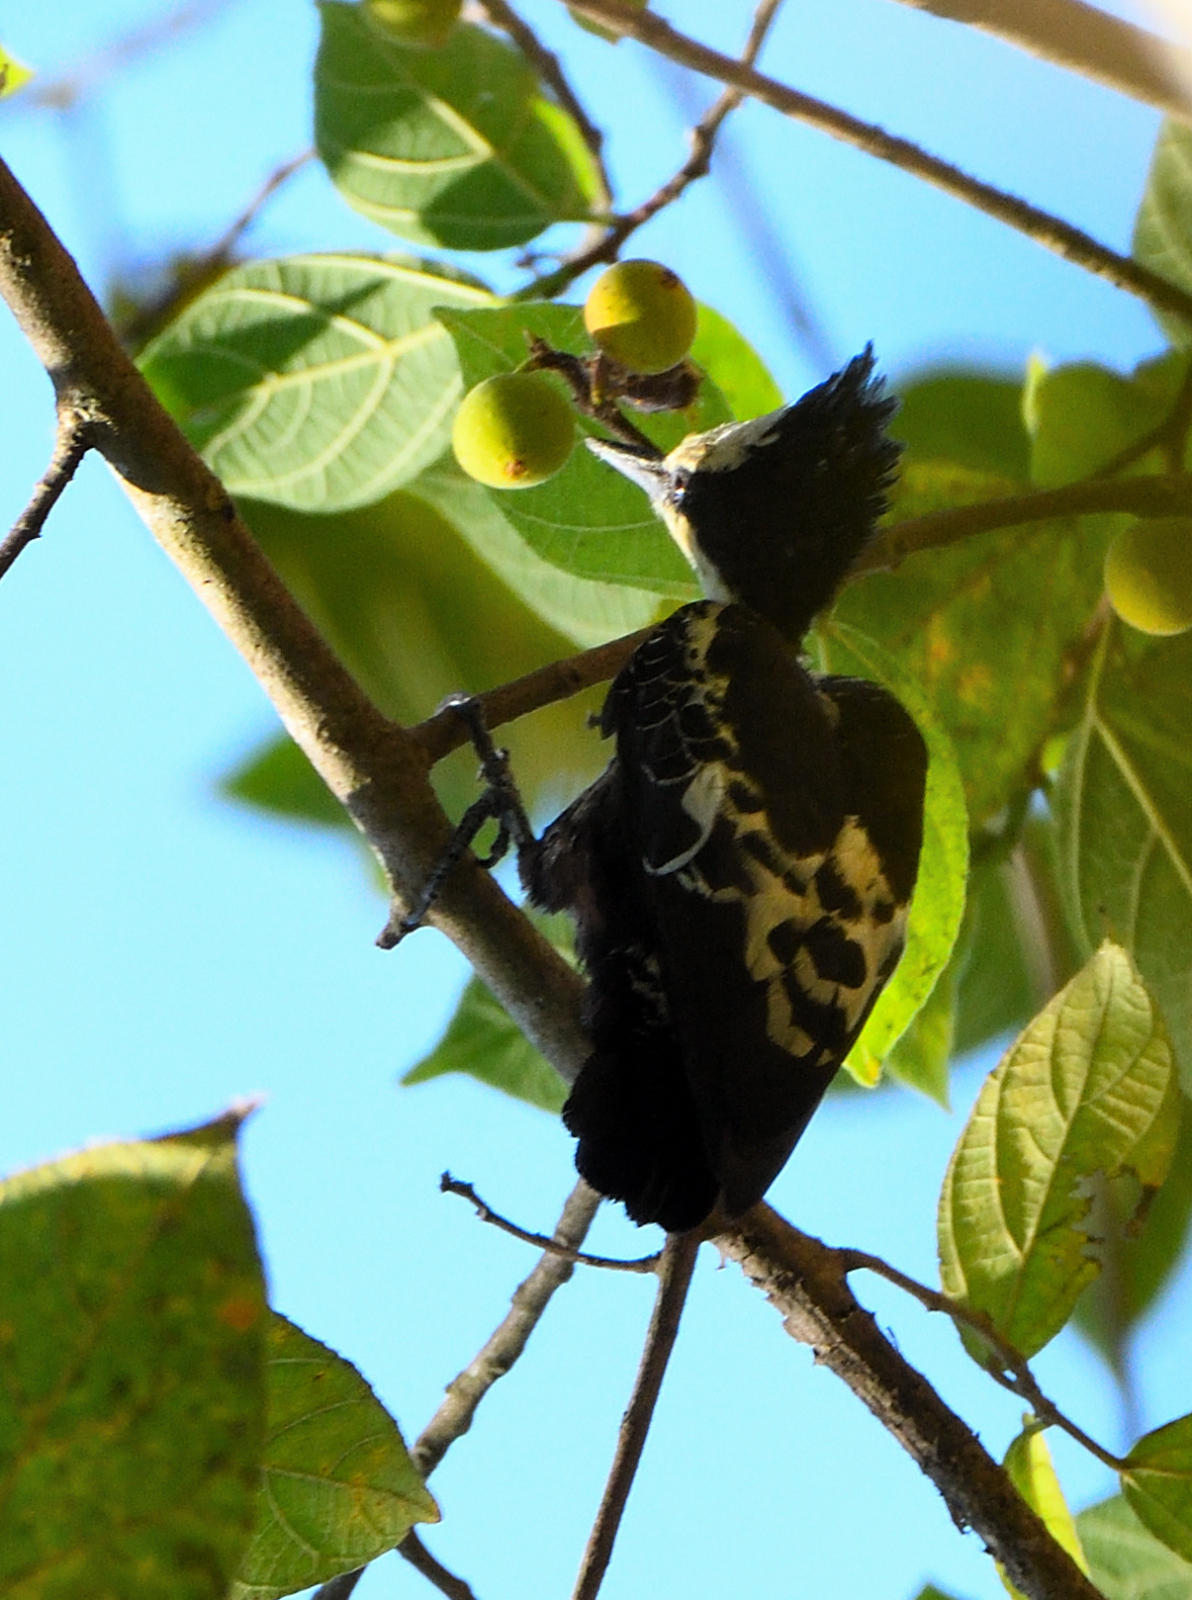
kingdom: Animalia
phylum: Chordata
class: Aves
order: Piciformes
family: Picidae
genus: Hemicircus
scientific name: Hemicircus canente
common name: Heart-spotted woodpecker
